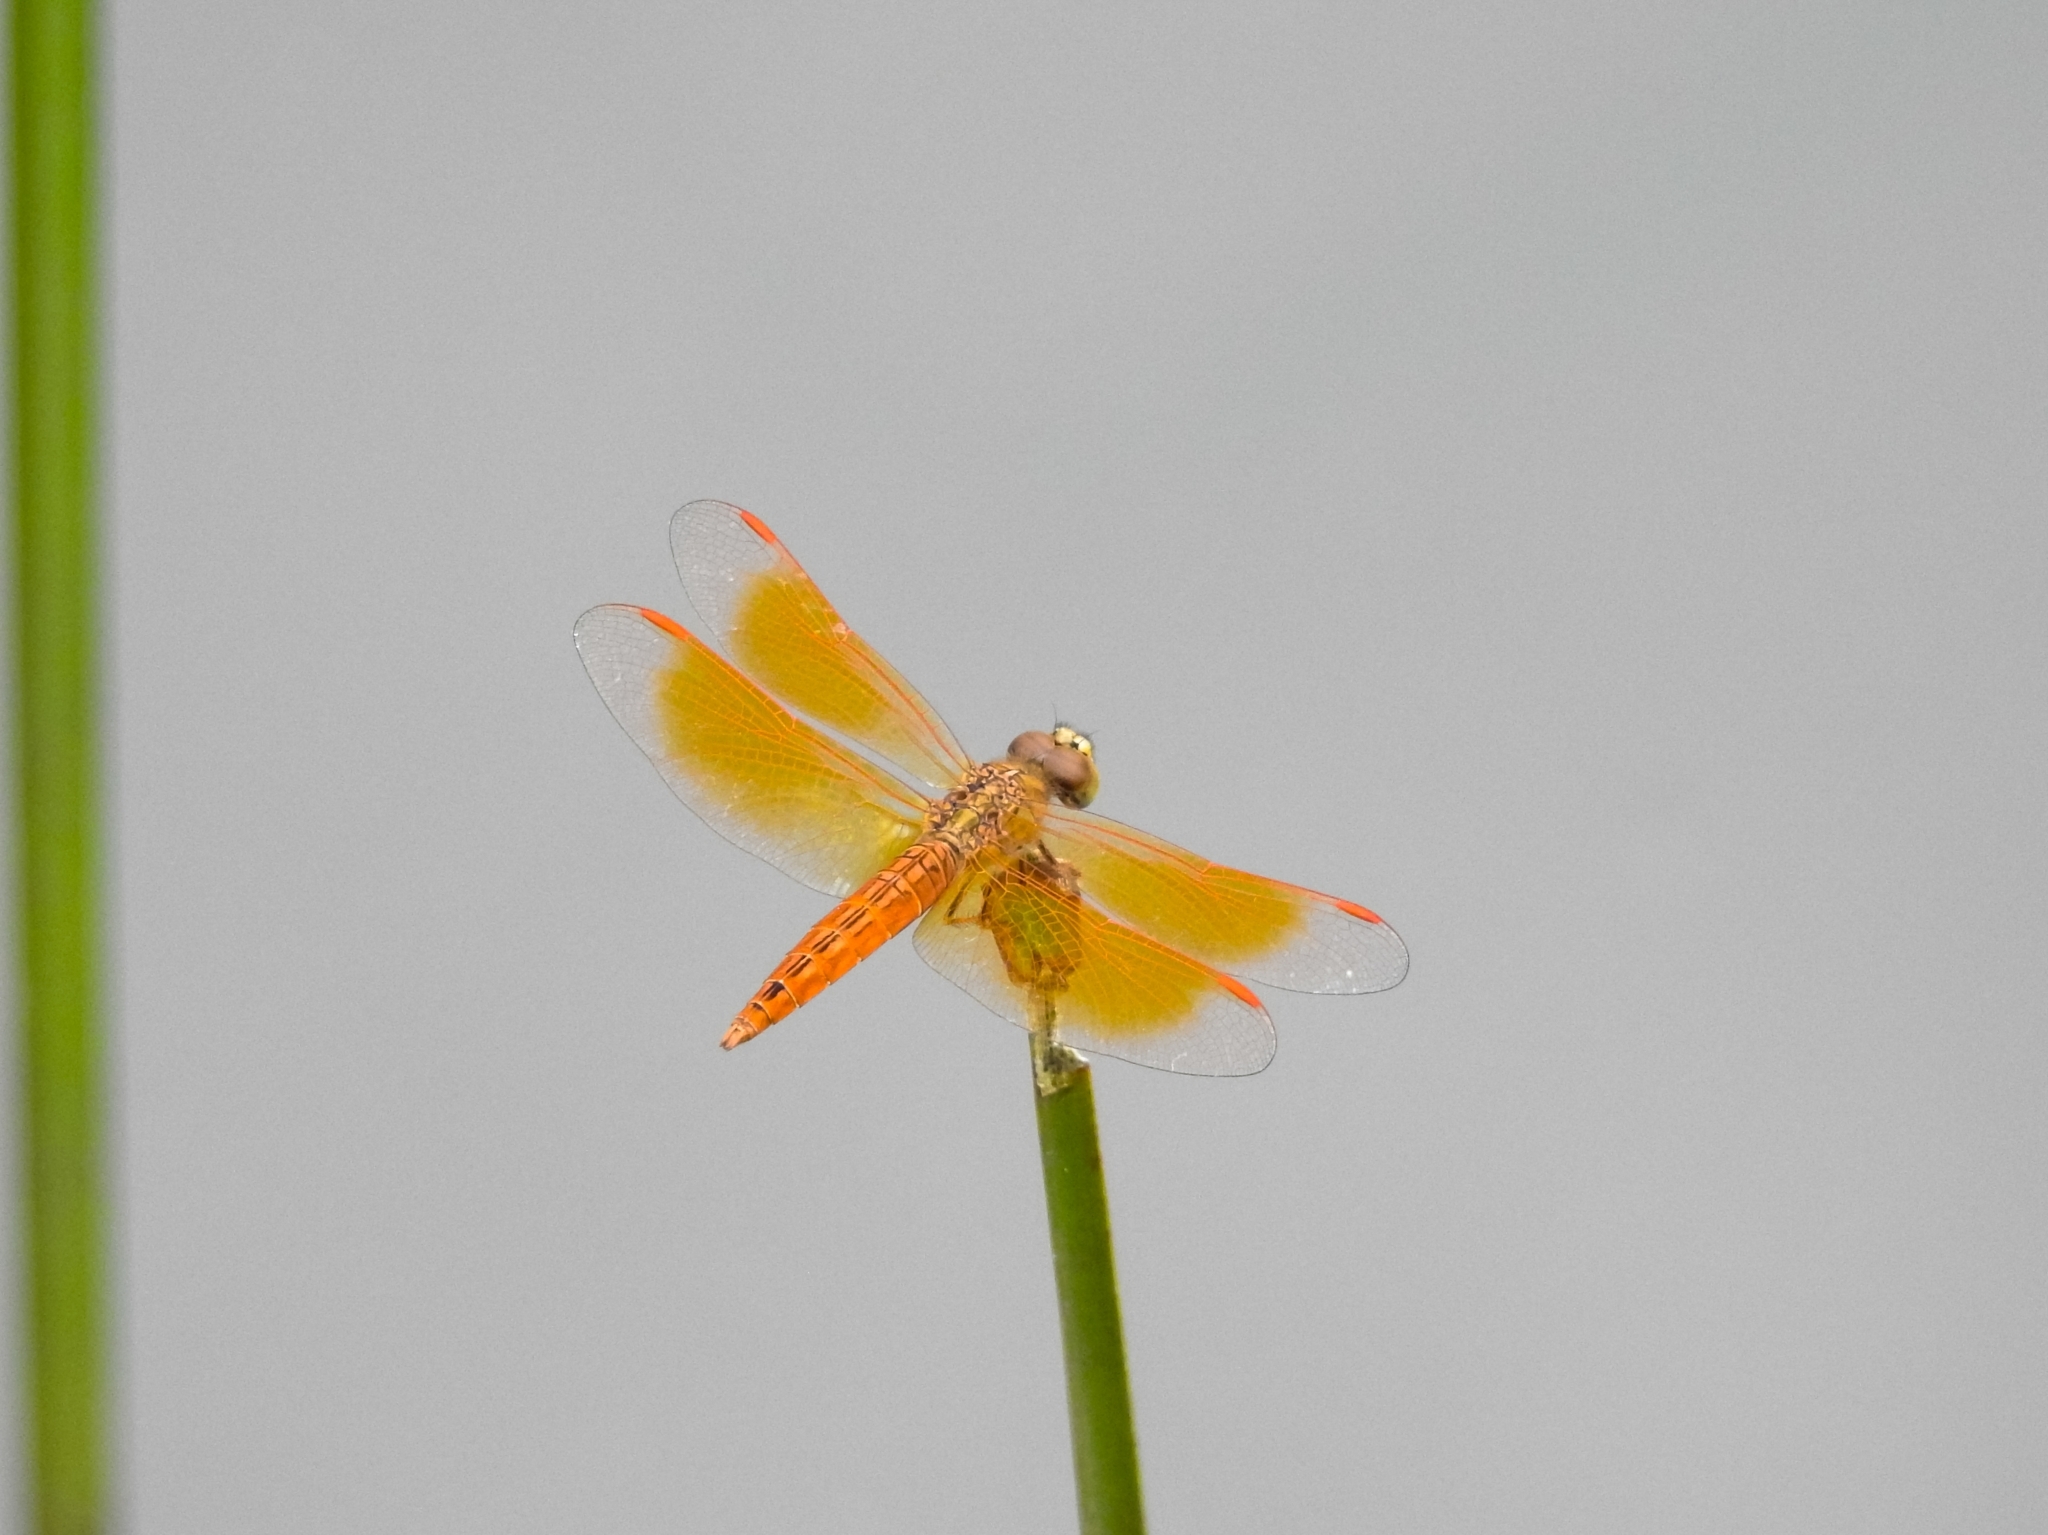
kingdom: Animalia
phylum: Arthropoda
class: Insecta
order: Odonata
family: Libellulidae
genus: Brachythemis
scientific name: Brachythemis contaminata
